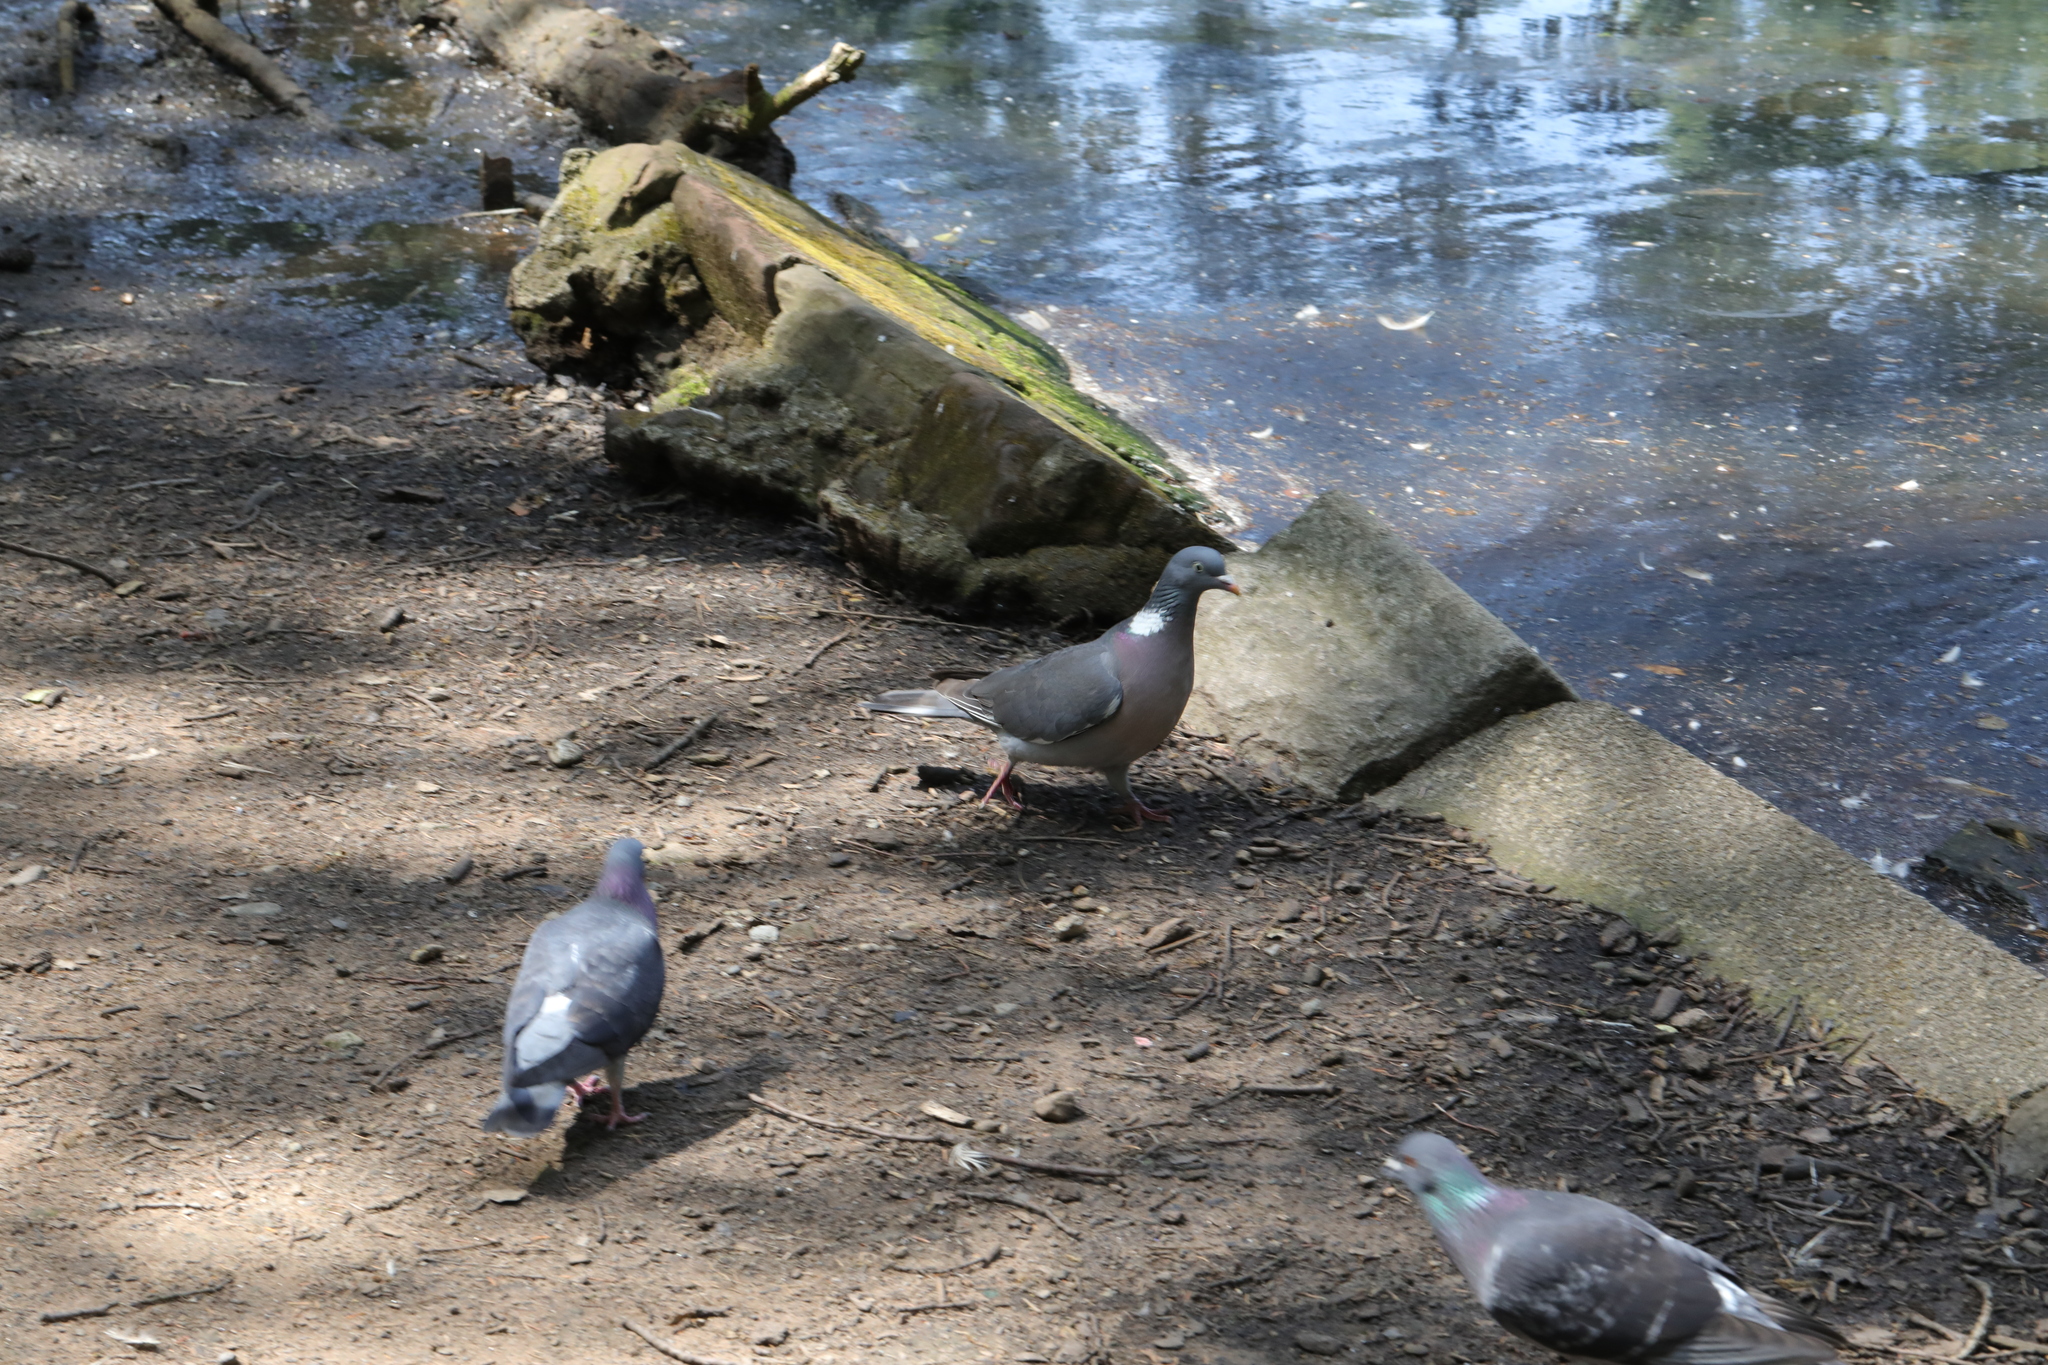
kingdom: Animalia
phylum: Chordata
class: Aves
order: Columbiformes
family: Columbidae
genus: Columba
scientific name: Columba palumbus
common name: Common wood pigeon
